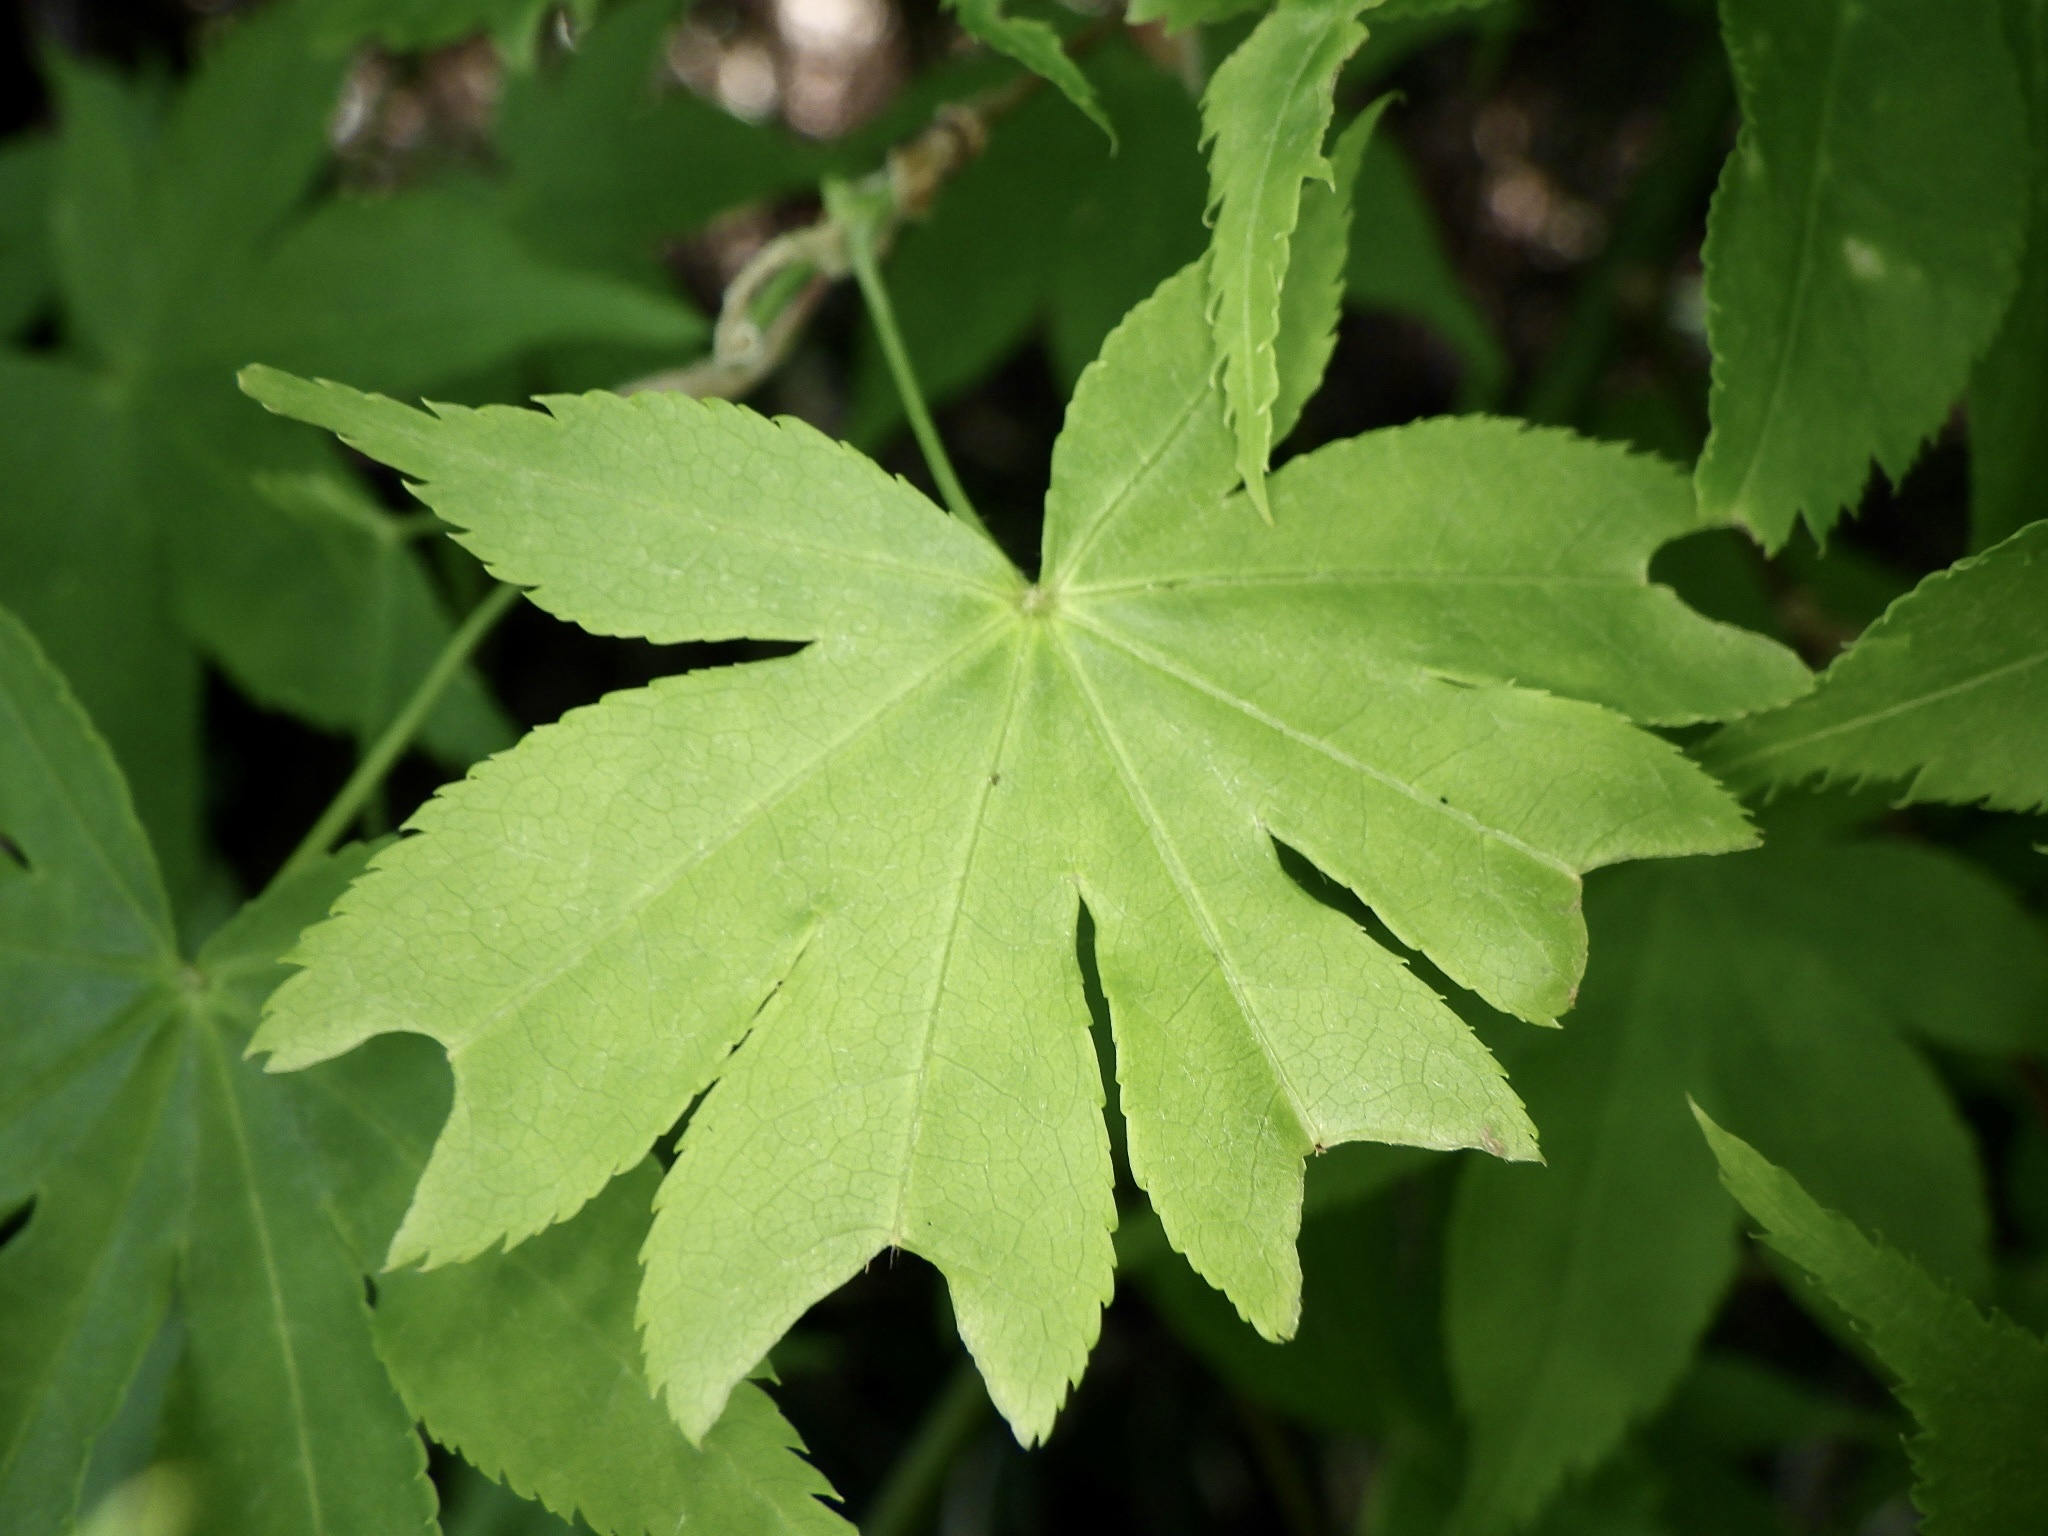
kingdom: Plantae
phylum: Tracheophyta
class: Magnoliopsida
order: Sapindales
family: Sapindaceae
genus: Acer
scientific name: Acer palmatum
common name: Japanese maple
